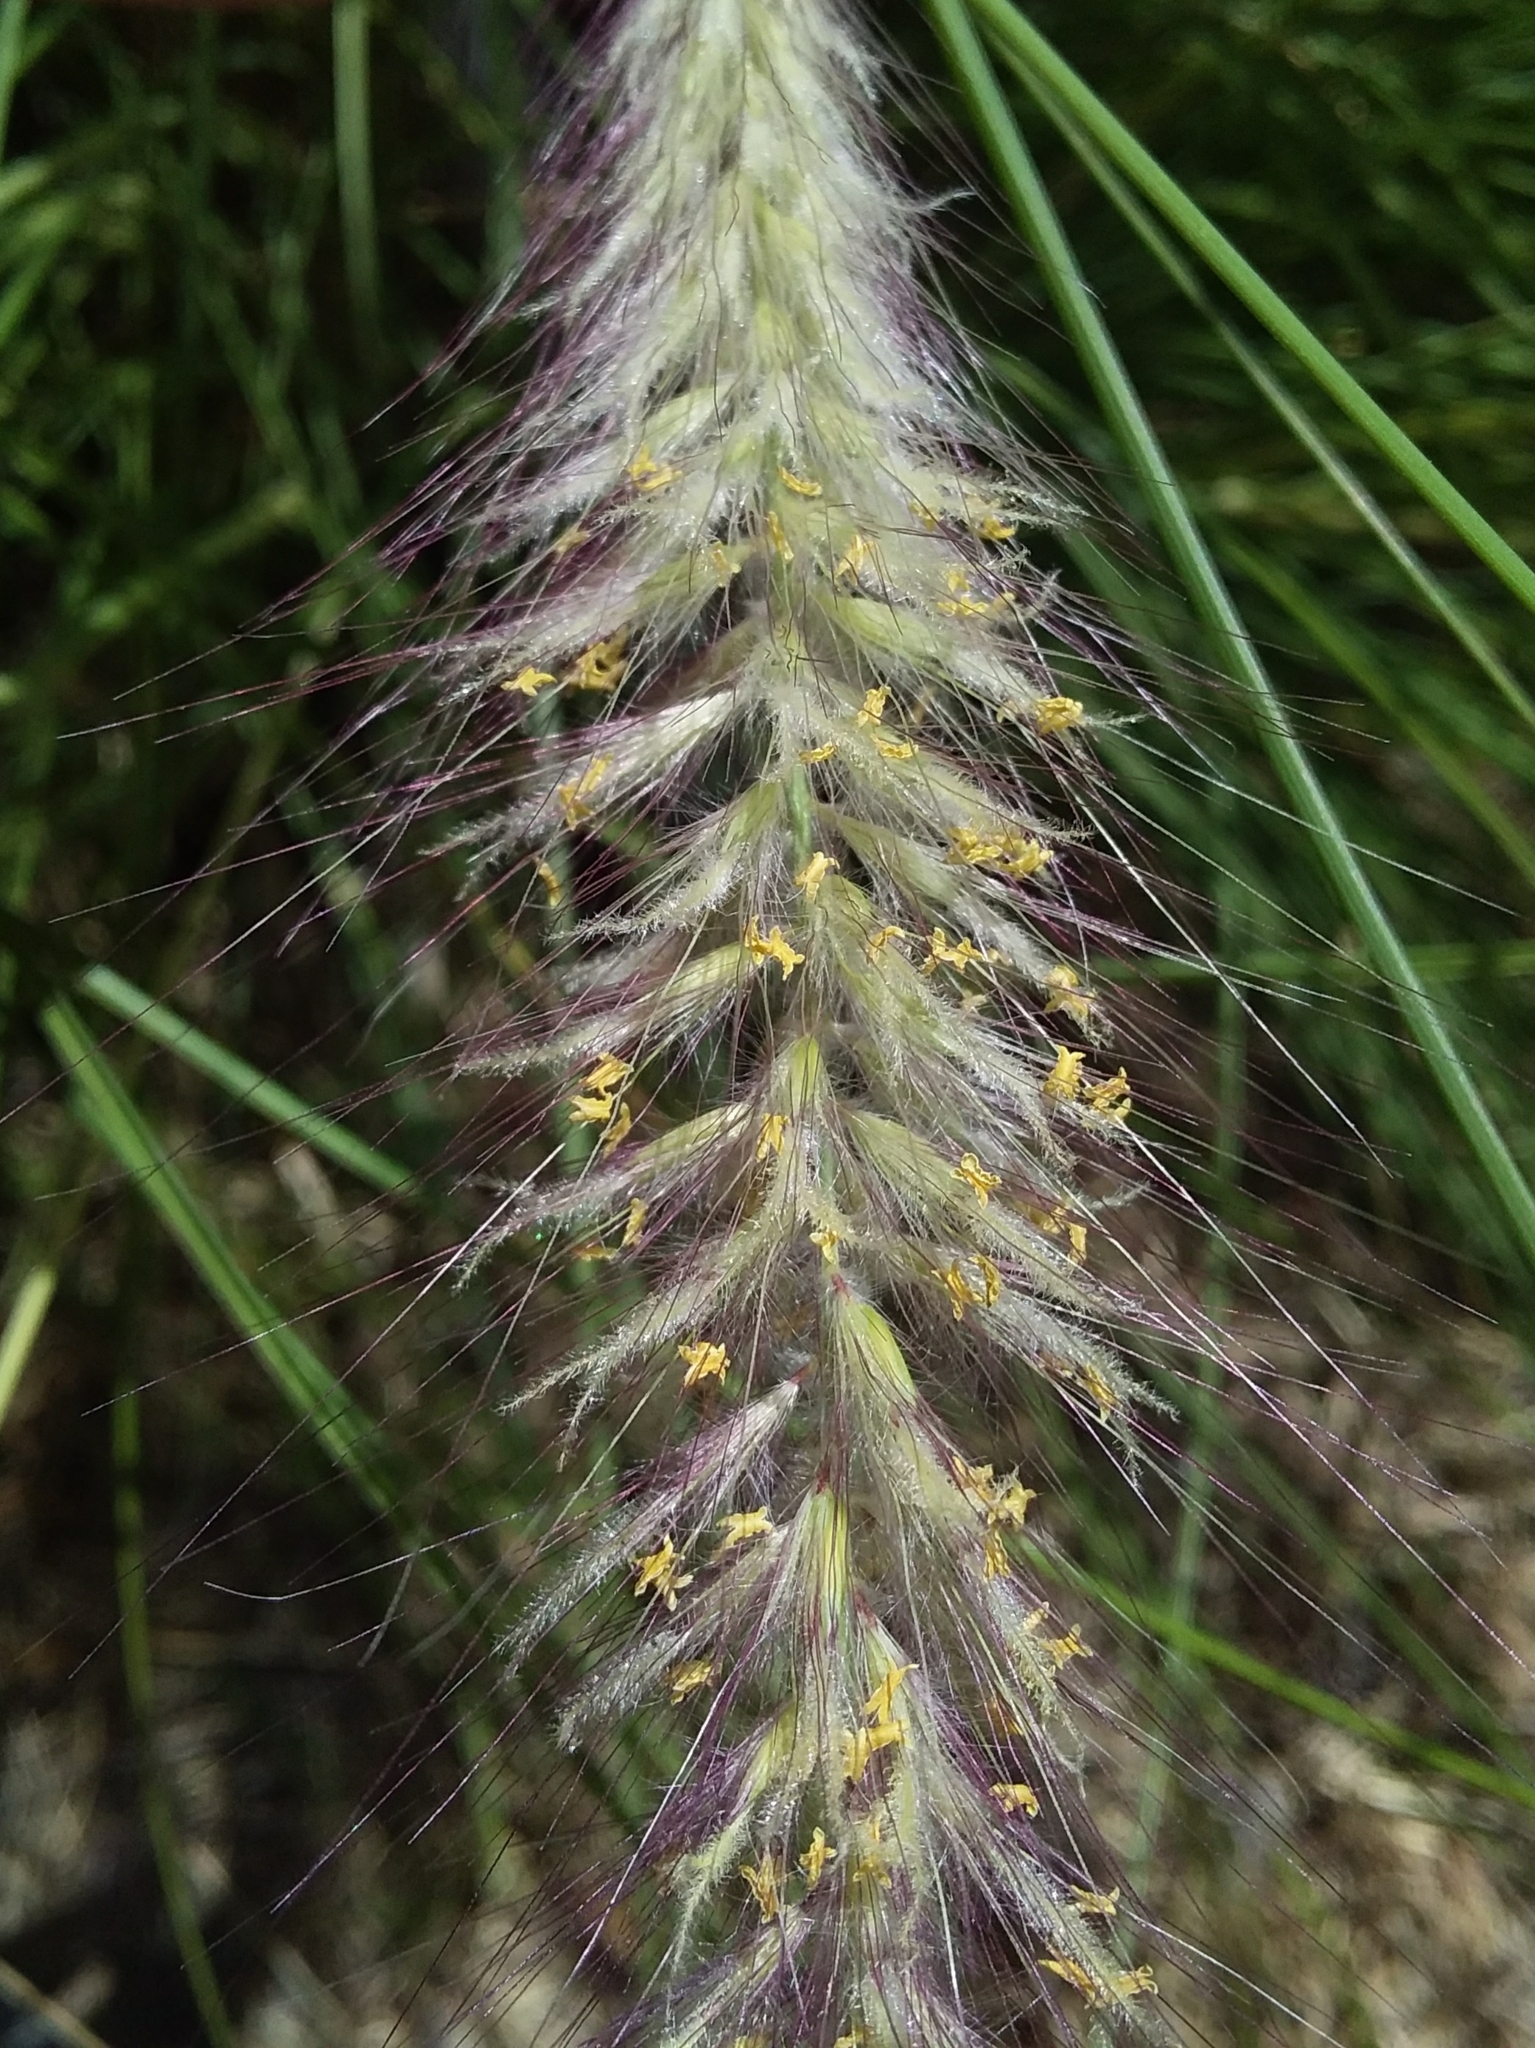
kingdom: Plantae
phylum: Tracheophyta
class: Liliopsida
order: Poales
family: Poaceae
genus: Cenchrus
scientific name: Cenchrus setaceus
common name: Crimson fountaingrass
